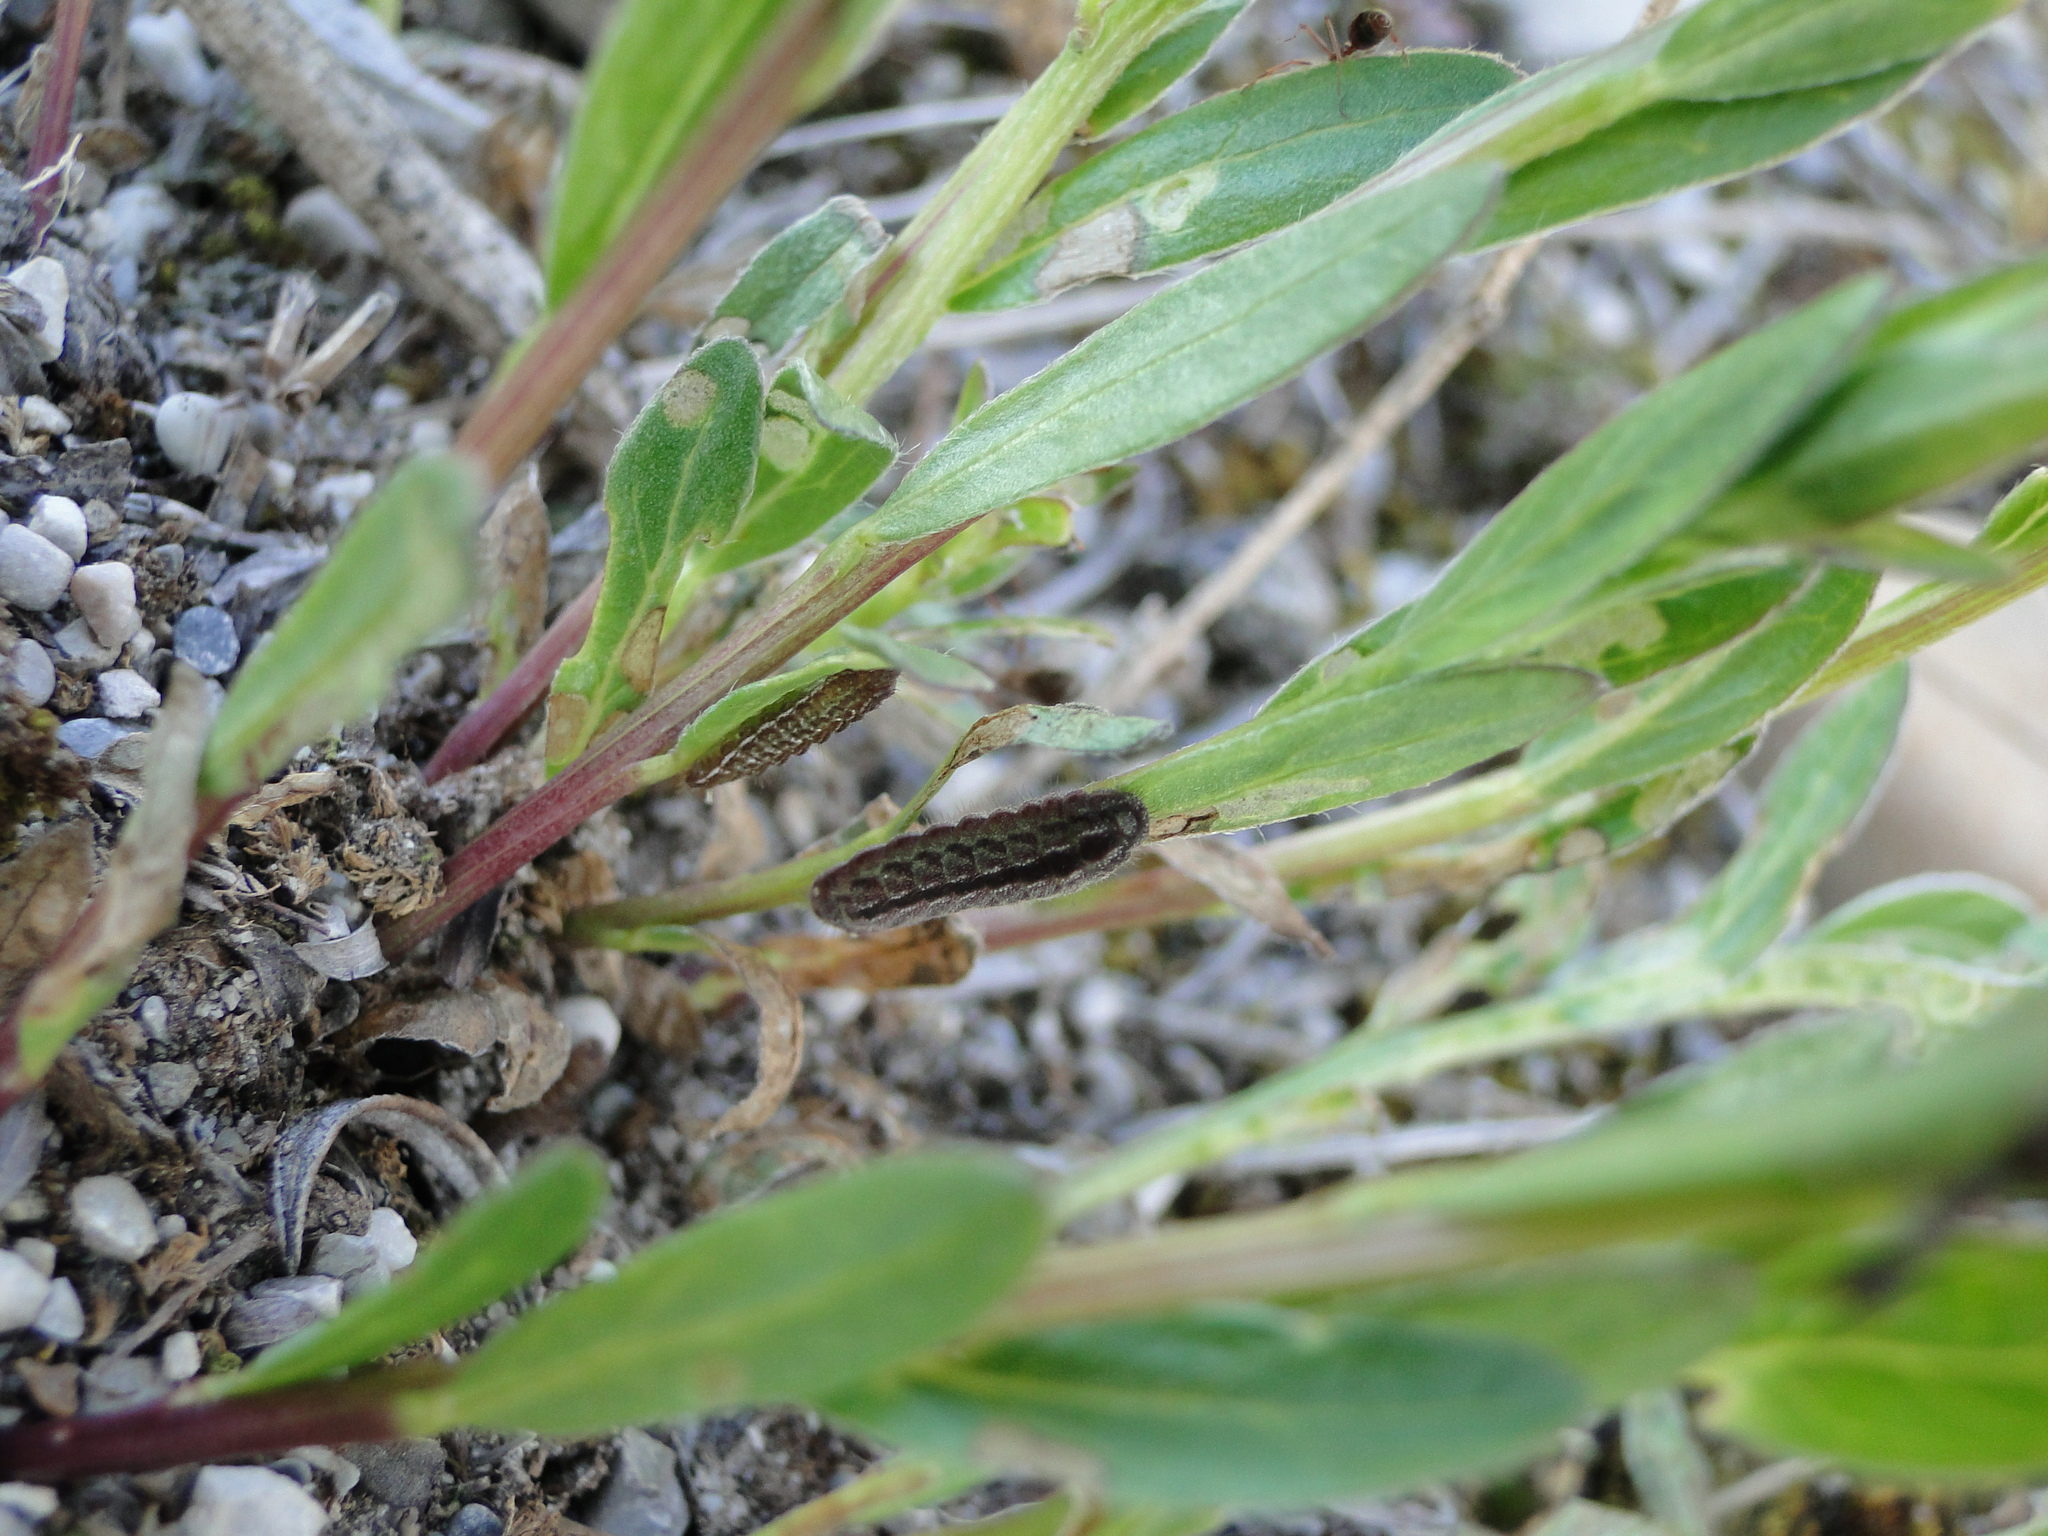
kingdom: Animalia
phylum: Arthropoda
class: Insecta
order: Lepidoptera
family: Lycaenidae
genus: Lycaeides
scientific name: Lycaeides idas
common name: Northern blue
